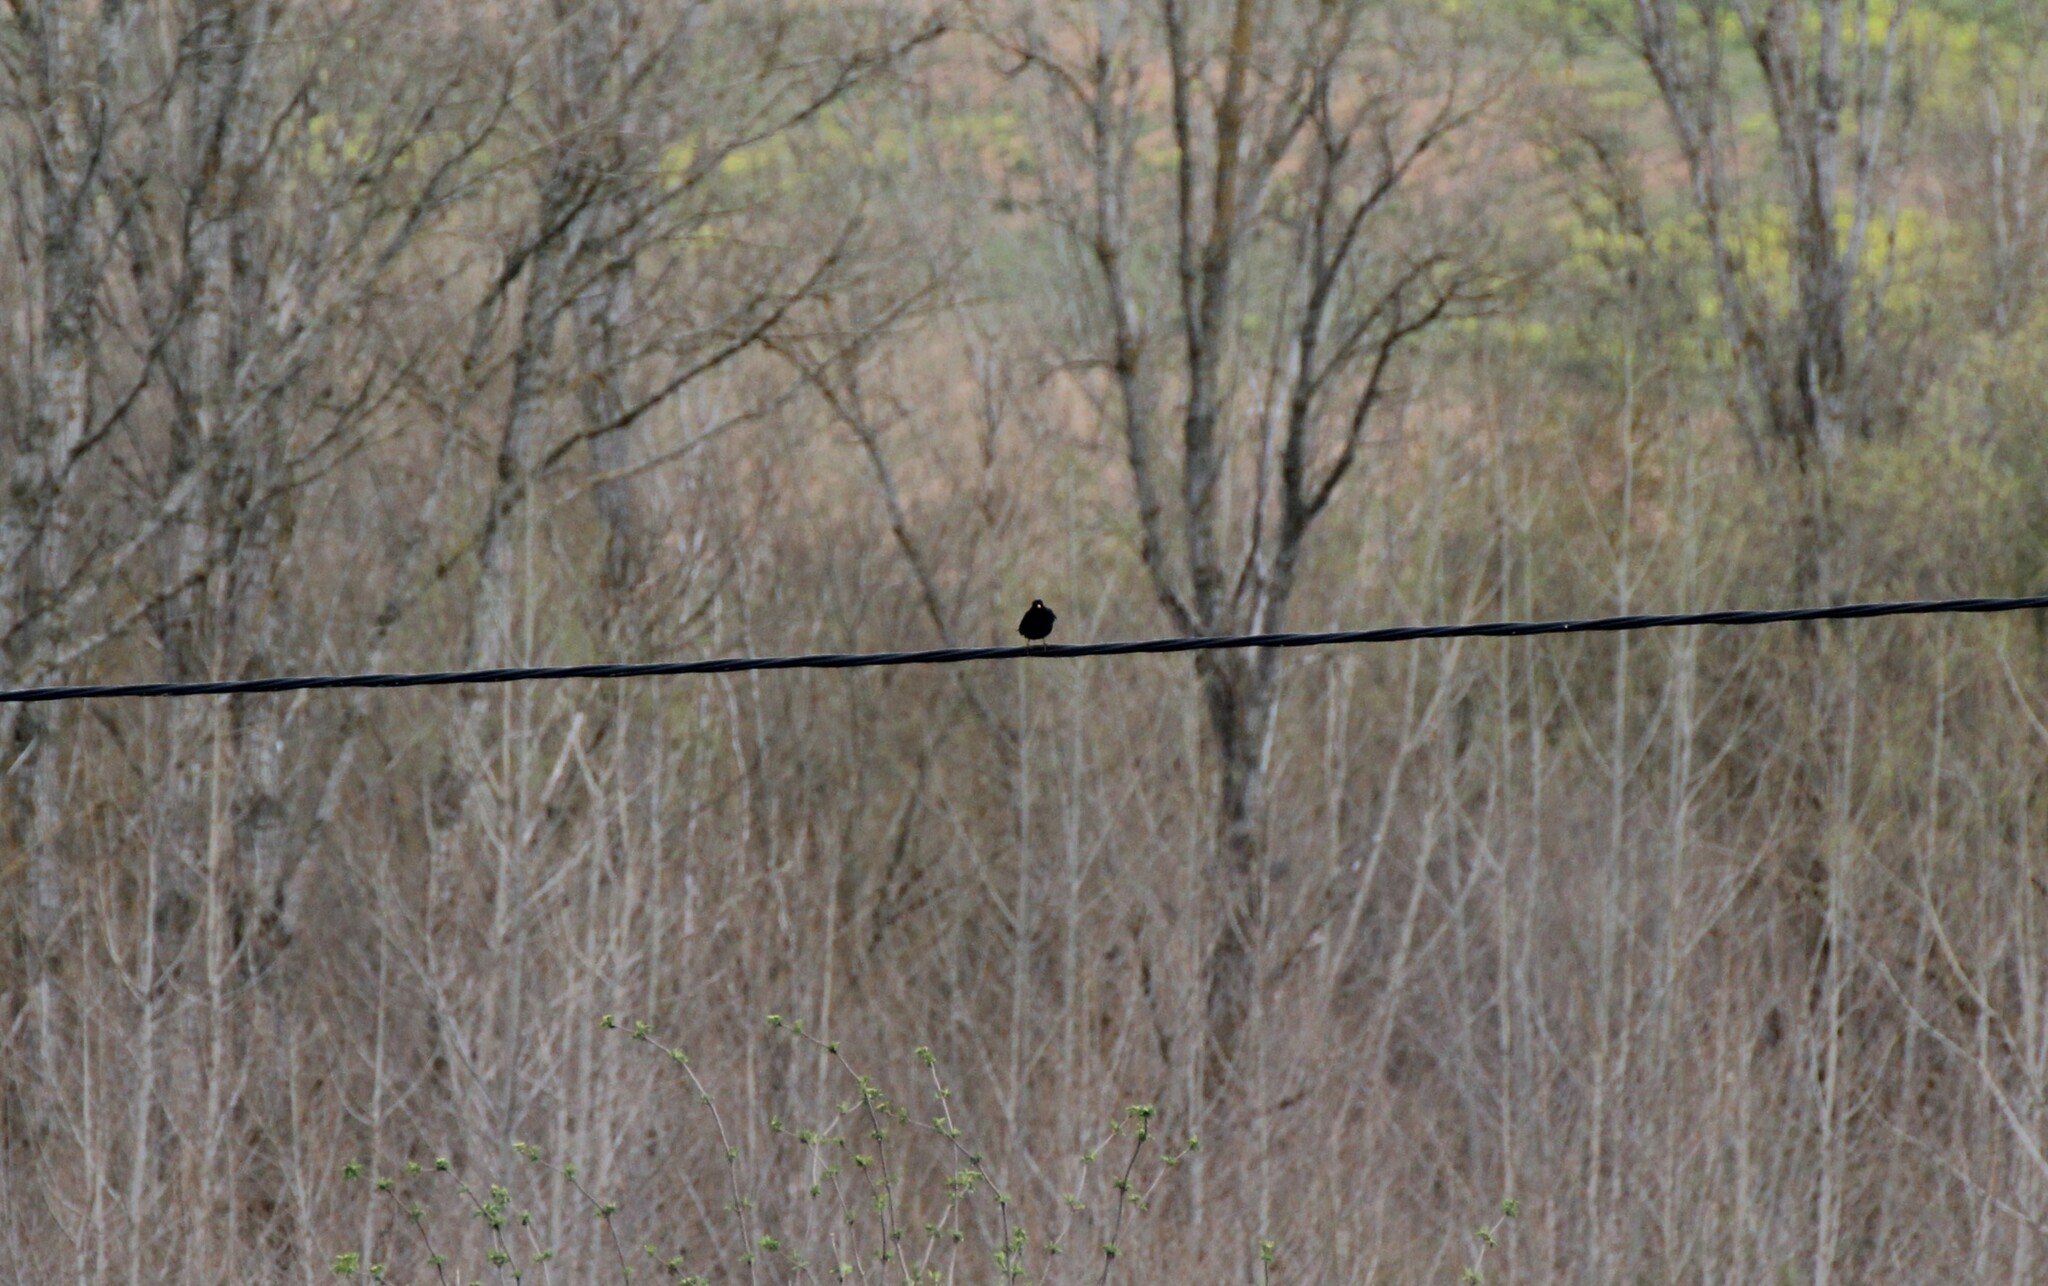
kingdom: Animalia
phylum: Chordata
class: Aves
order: Passeriformes
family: Turdidae
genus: Turdus
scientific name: Turdus merula
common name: Common blackbird
